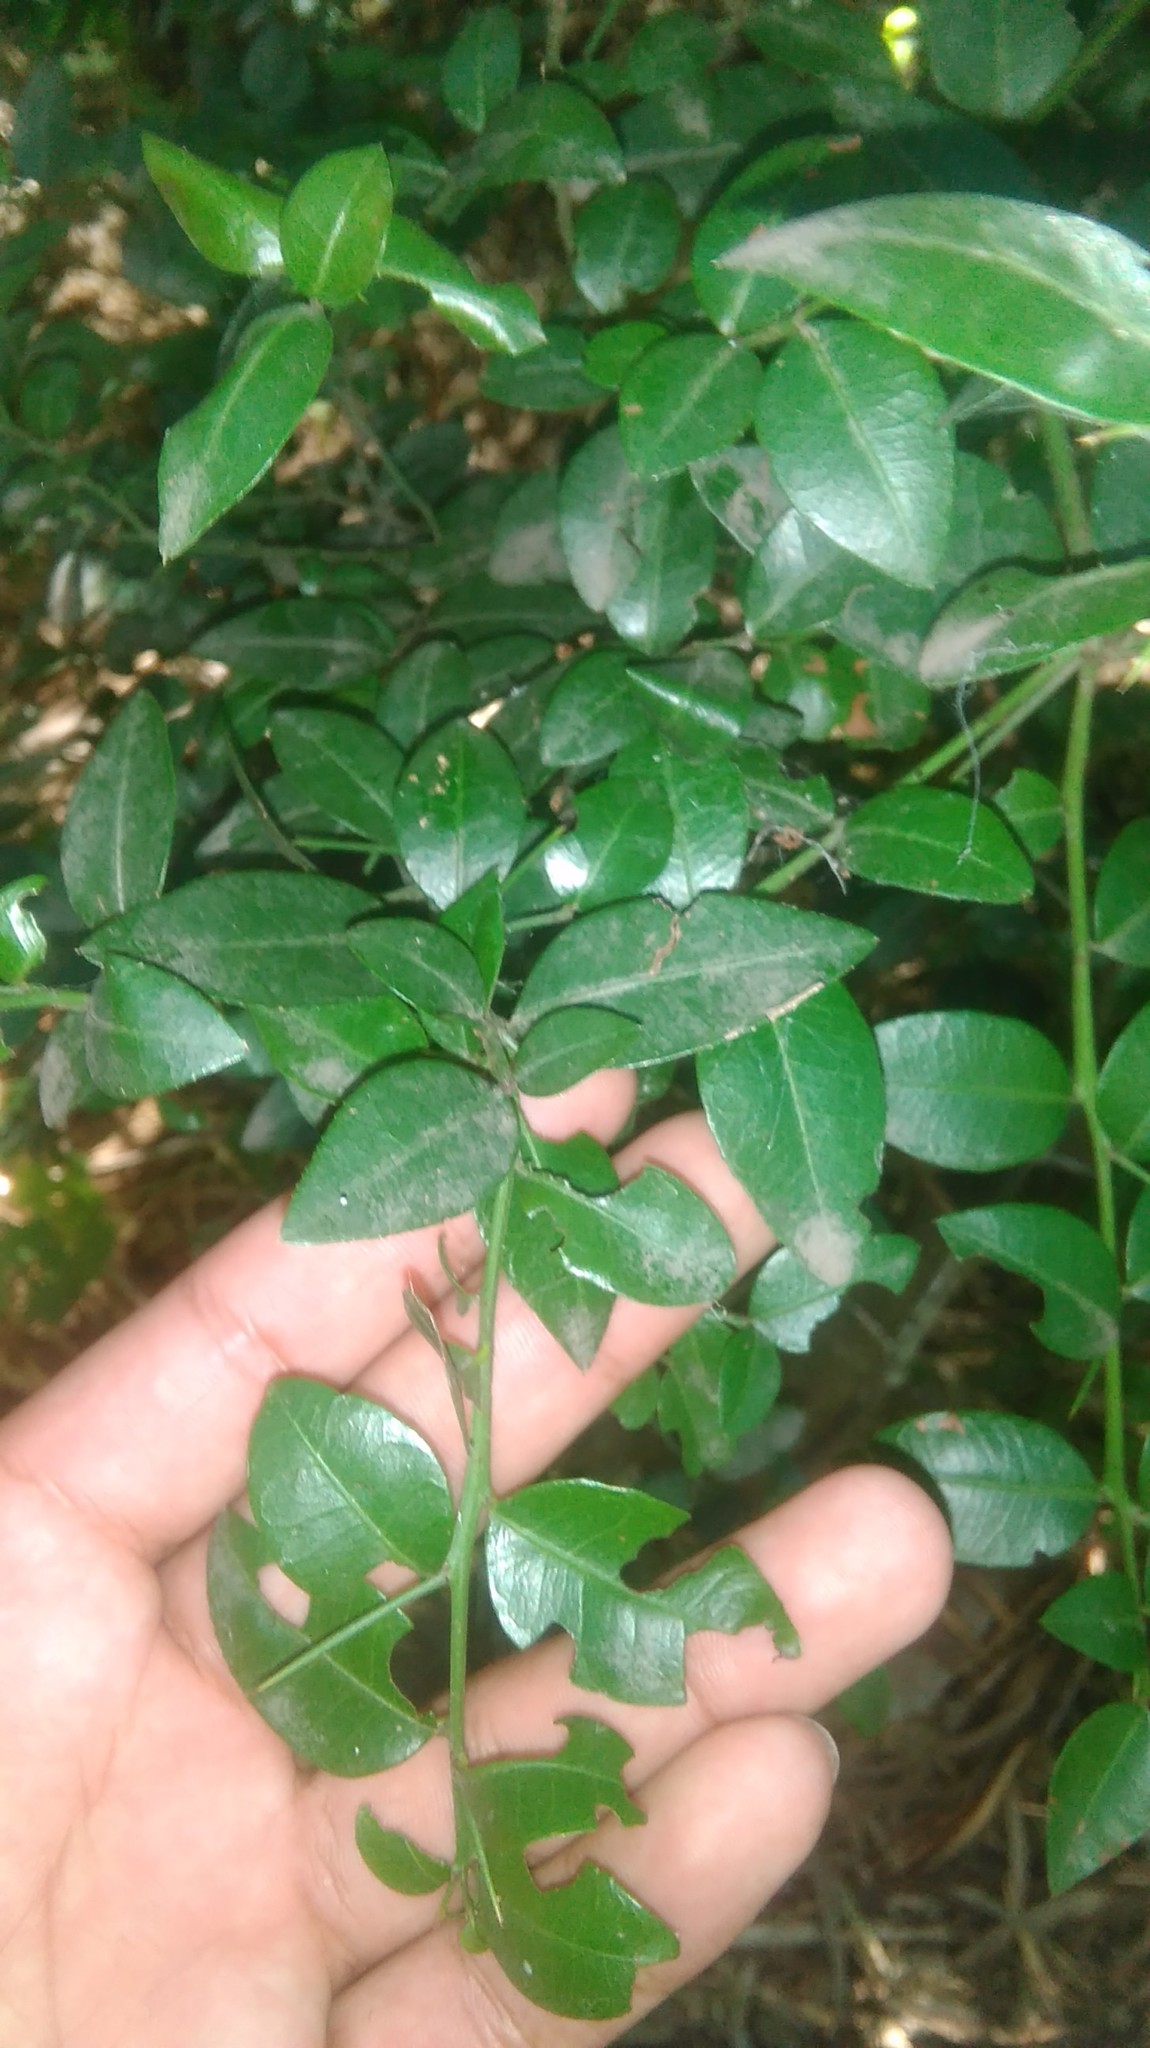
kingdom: Plantae
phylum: Tracheophyta
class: Magnoliopsida
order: Caryophyllales
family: Polygonaceae
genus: Muehlenbeckia
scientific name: Muehlenbeckia tamnifolia
